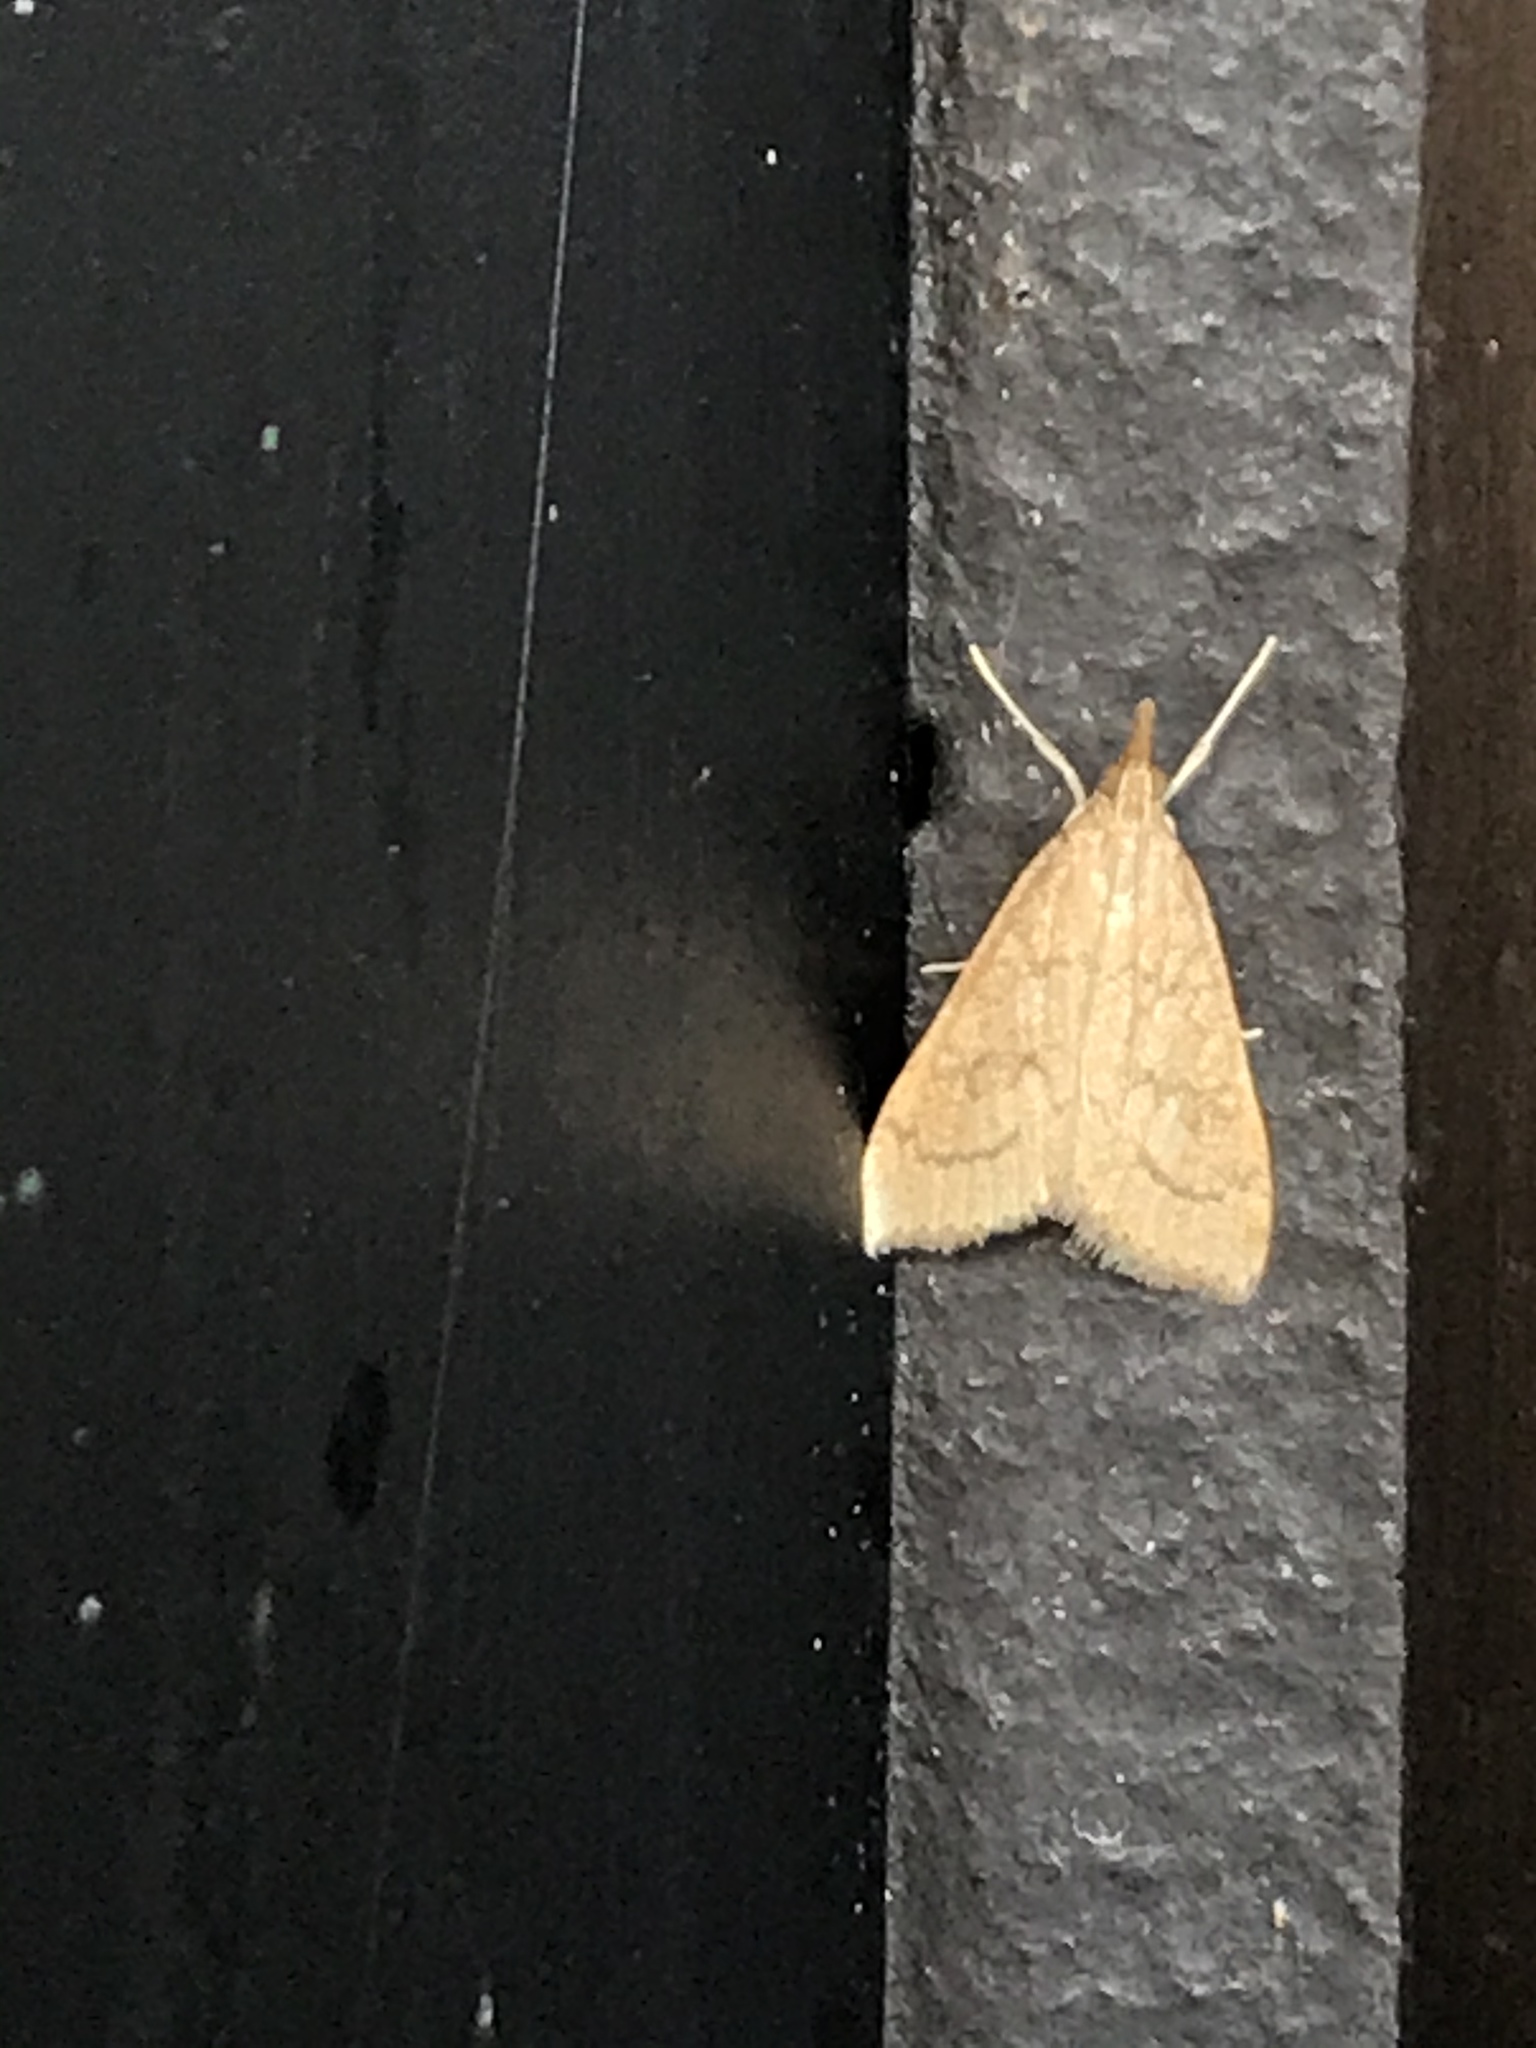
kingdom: Animalia
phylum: Arthropoda
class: Insecta
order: Lepidoptera
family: Crambidae
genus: Udea
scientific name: Udea rubigalis
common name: Celery leaftier moth
